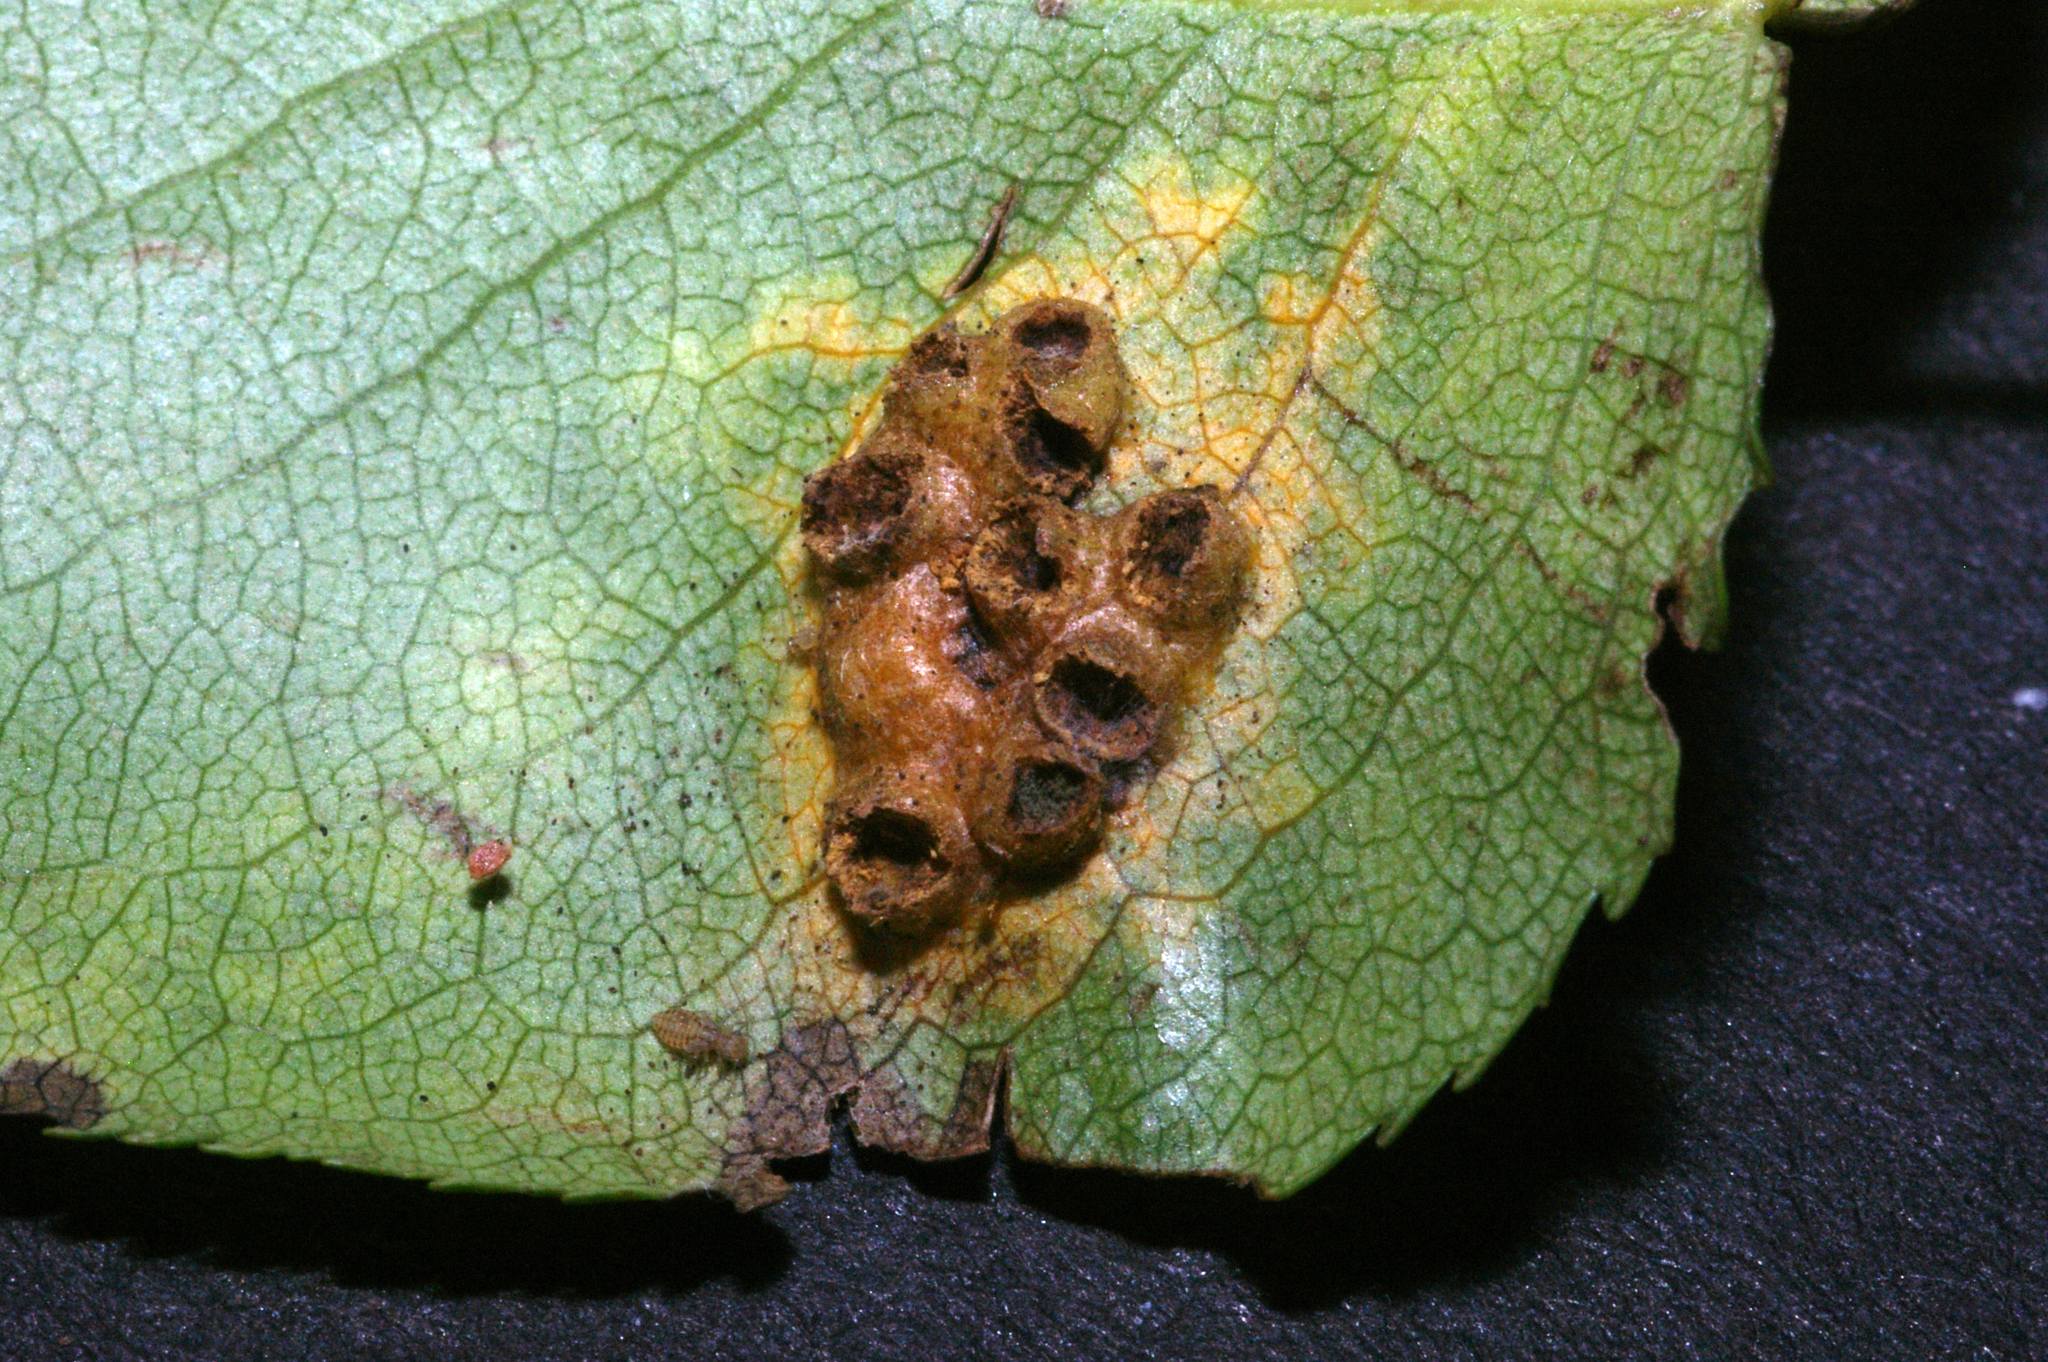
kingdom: Fungi
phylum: Basidiomycota
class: Pucciniomycetes
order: Pucciniales
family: Gymnosporangiaceae
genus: Gymnosporangium
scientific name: Gymnosporangium sabinae
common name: Pear trellis rust fungus
